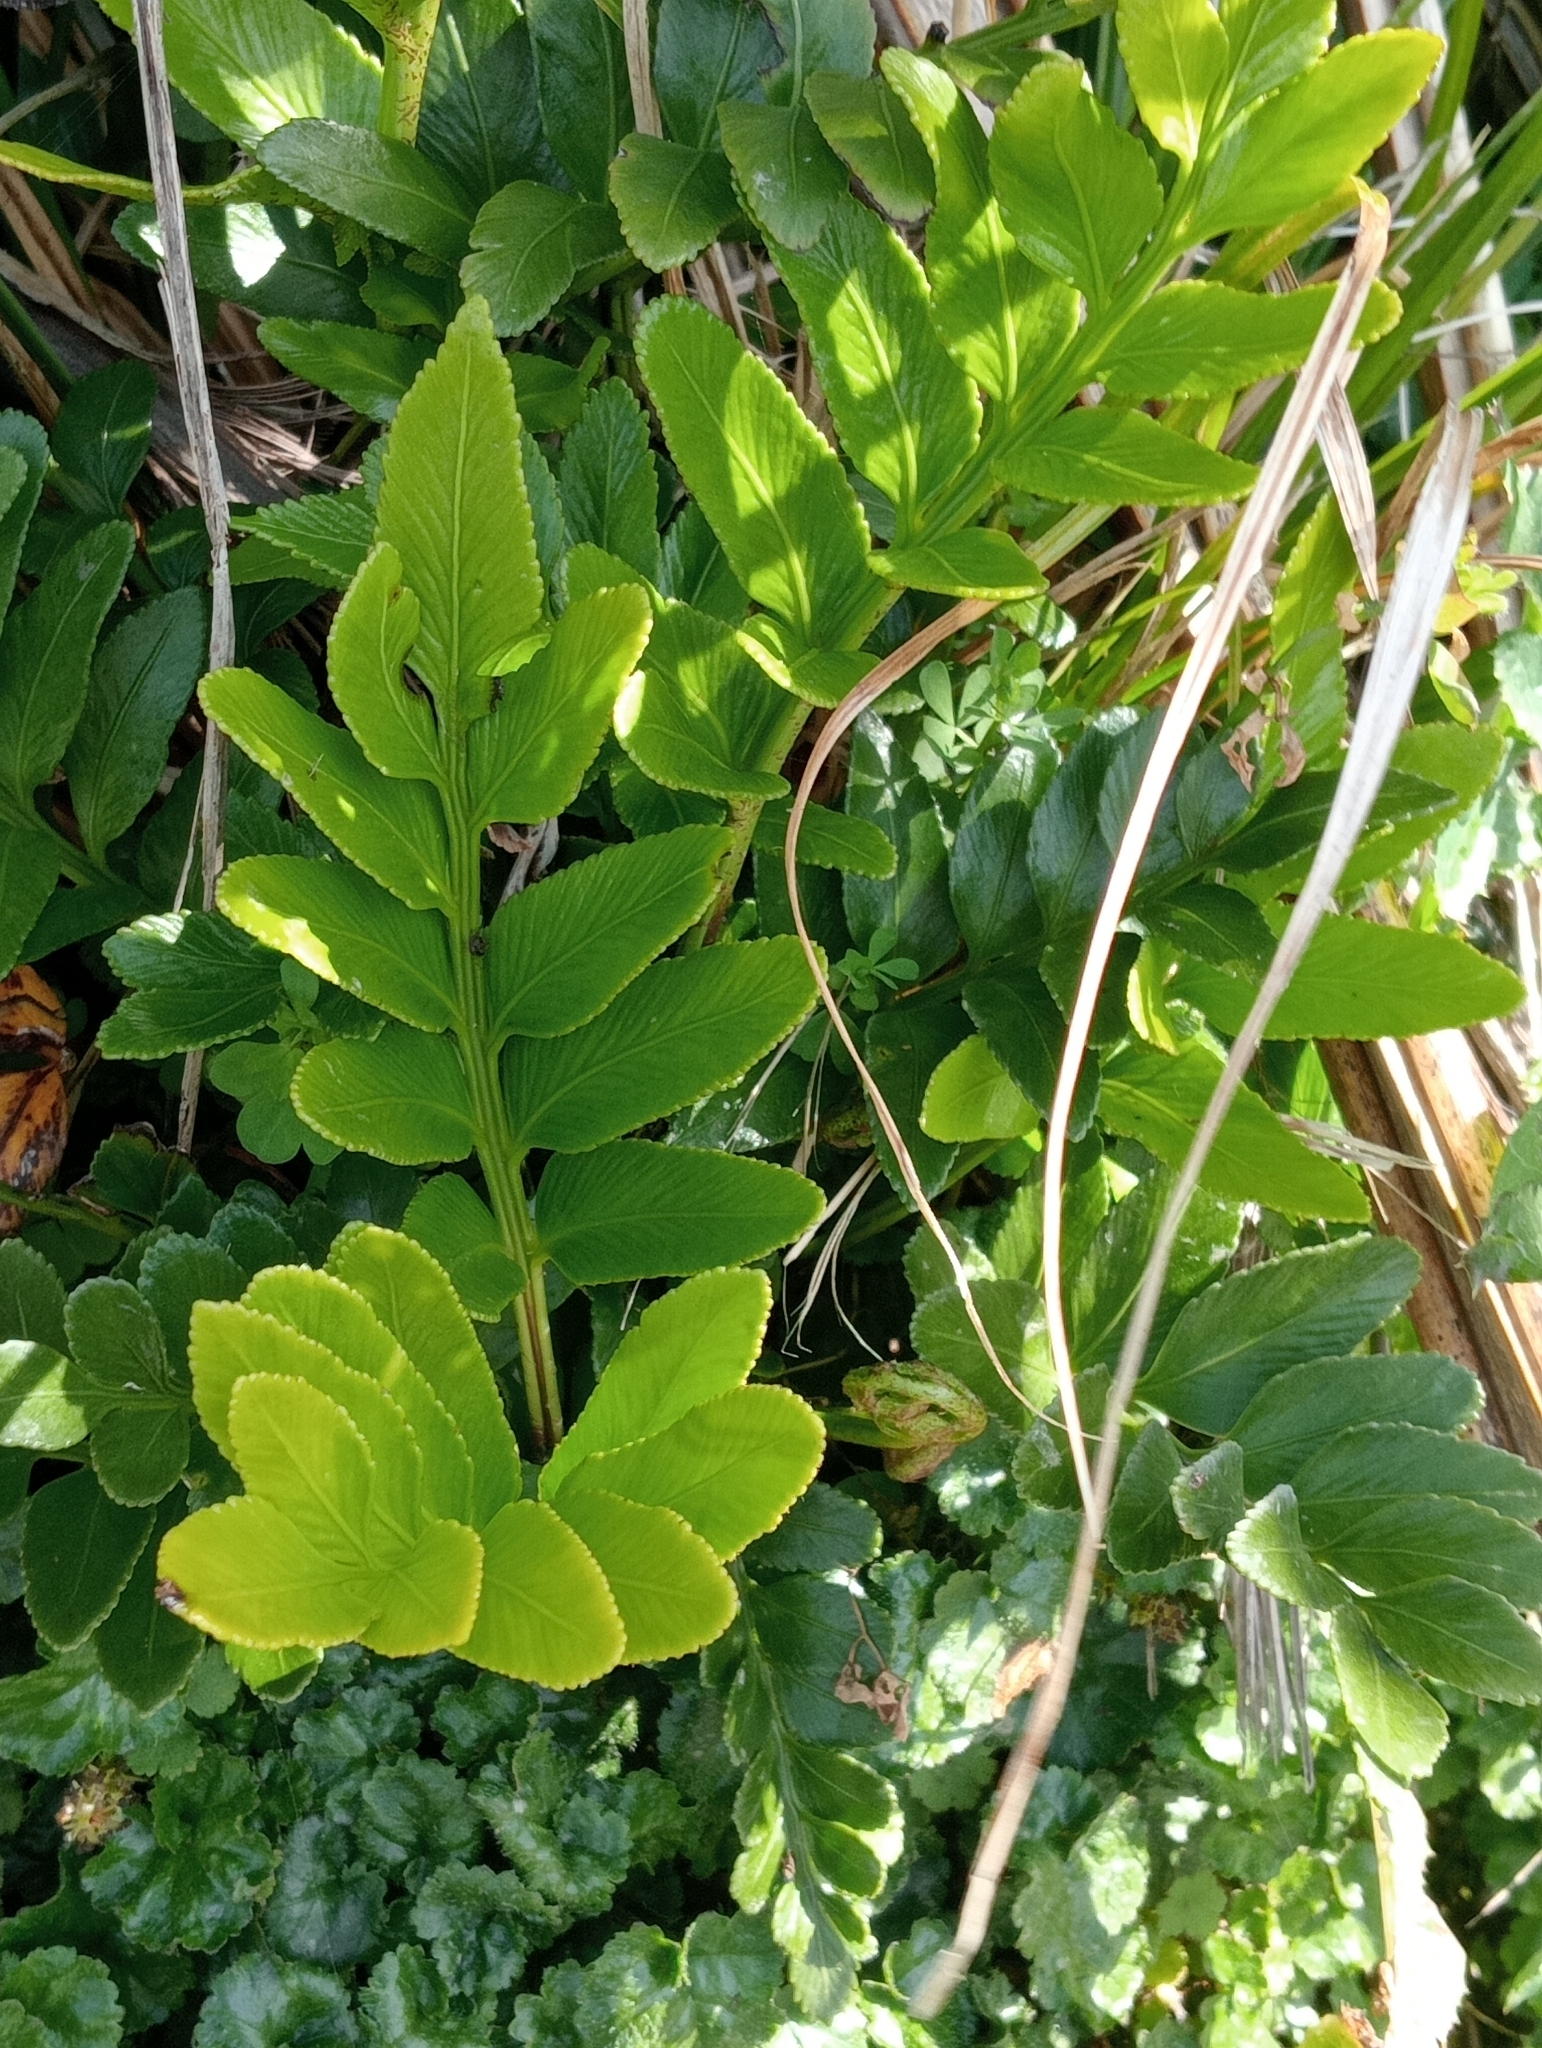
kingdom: Plantae
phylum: Tracheophyta
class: Polypodiopsida
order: Polypodiales
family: Aspleniaceae
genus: Asplenium
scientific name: Asplenium obtusatum
